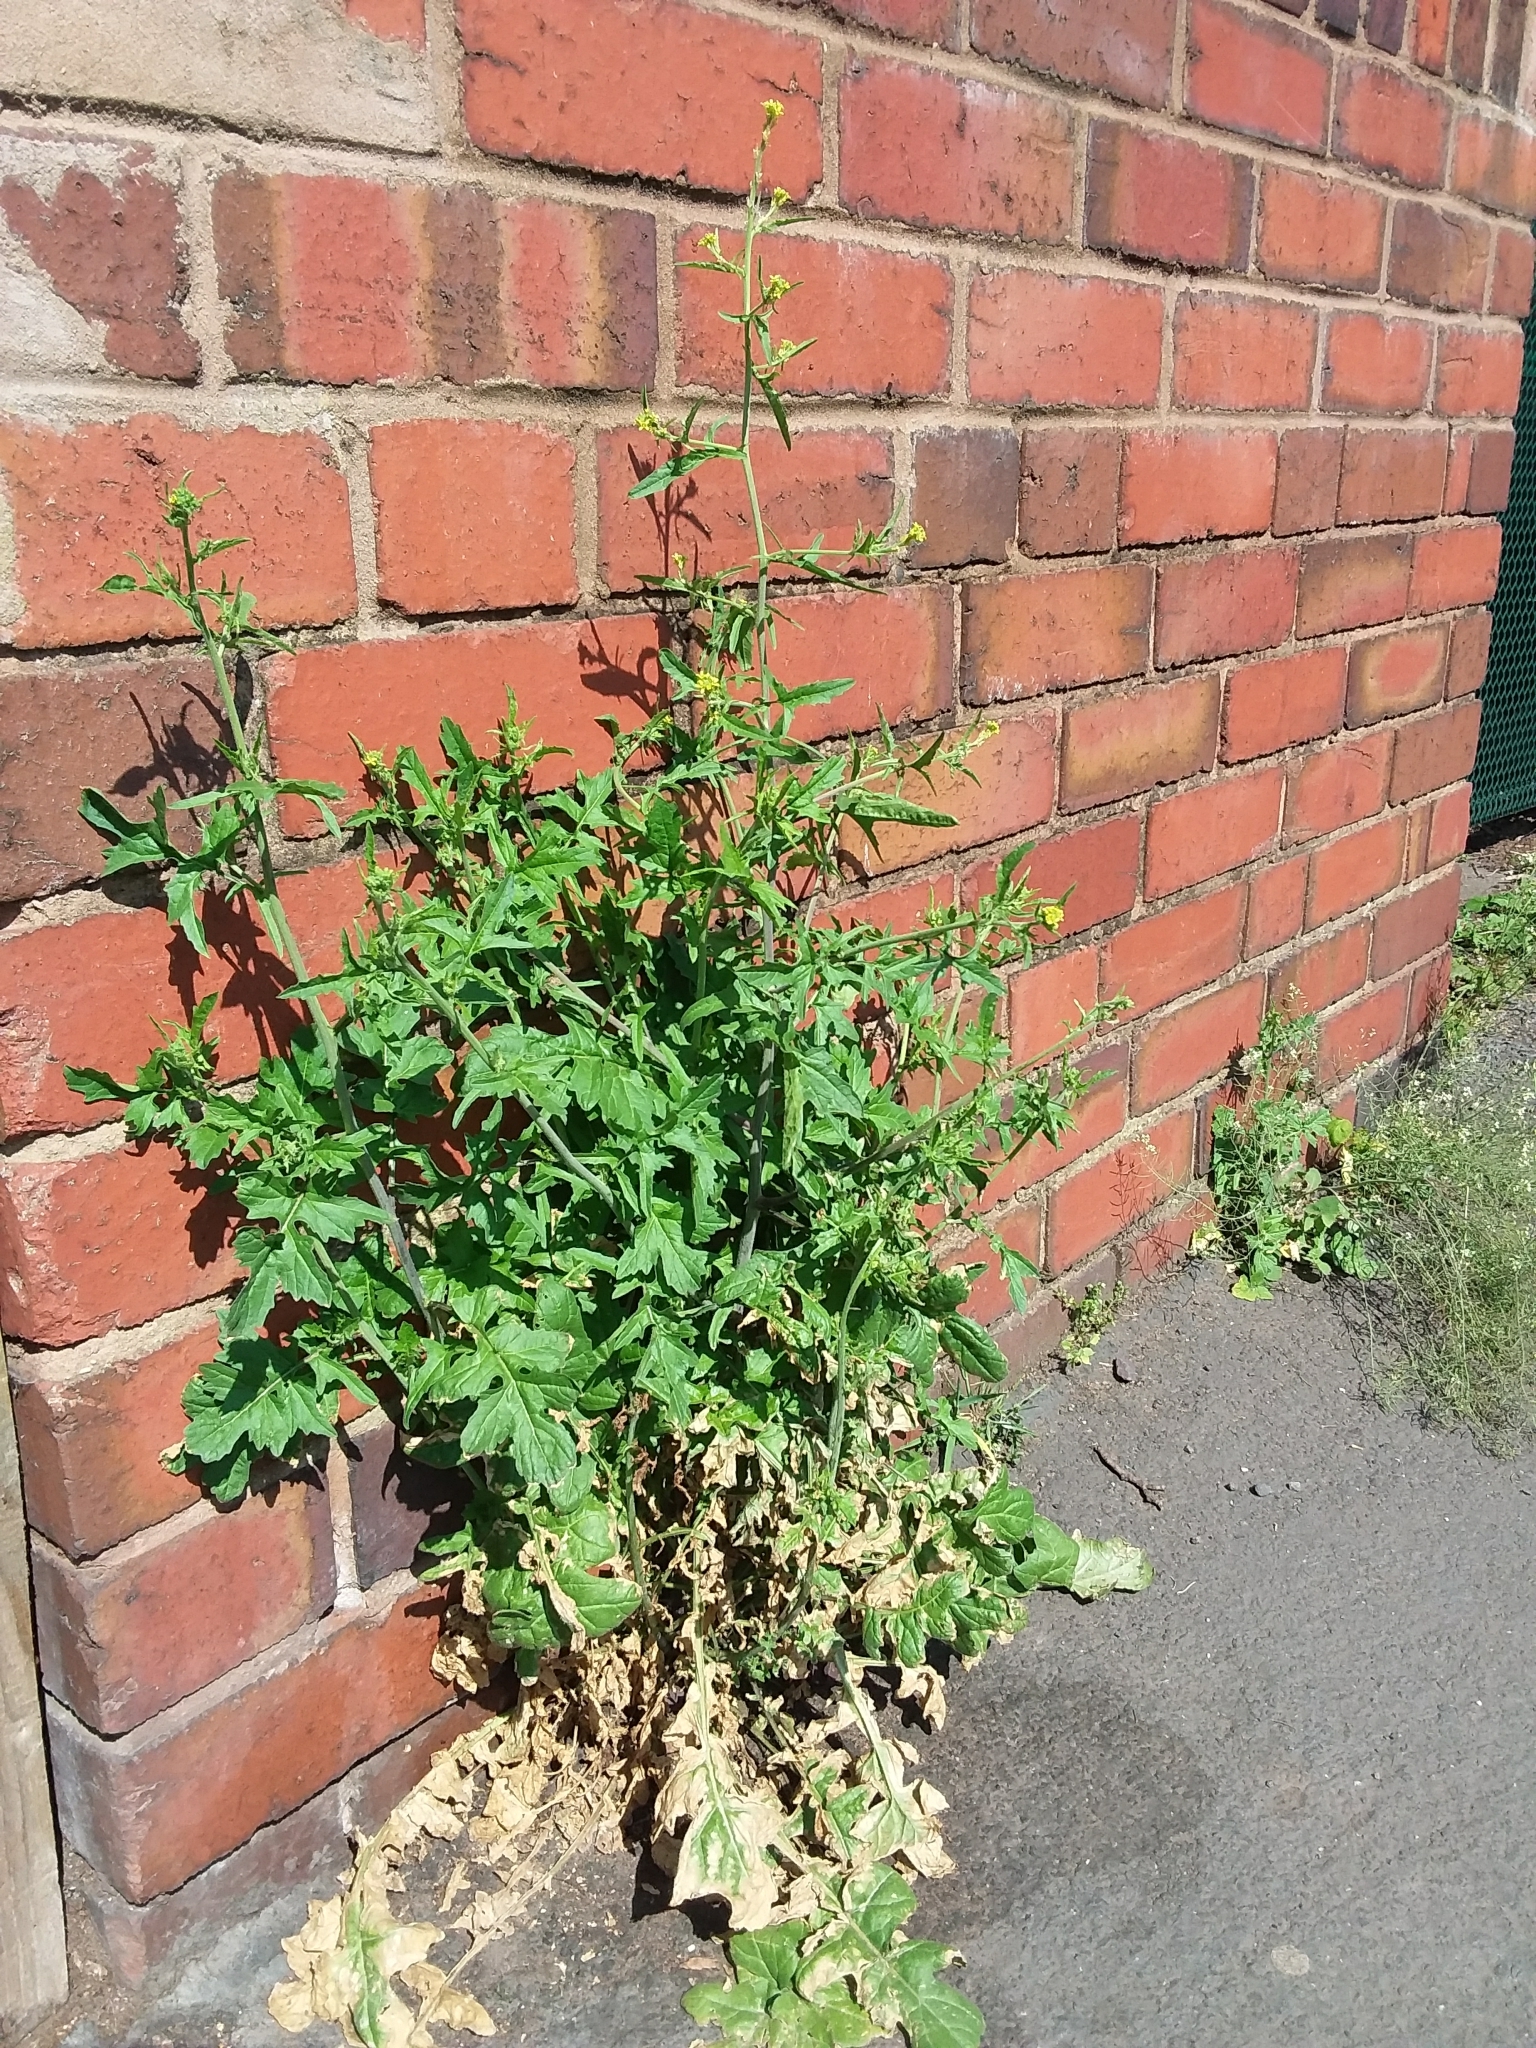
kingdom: Plantae
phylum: Tracheophyta
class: Magnoliopsida
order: Brassicales
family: Brassicaceae
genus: Sisymbrium
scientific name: Sisymbrium officinale
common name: Hedge mustard
